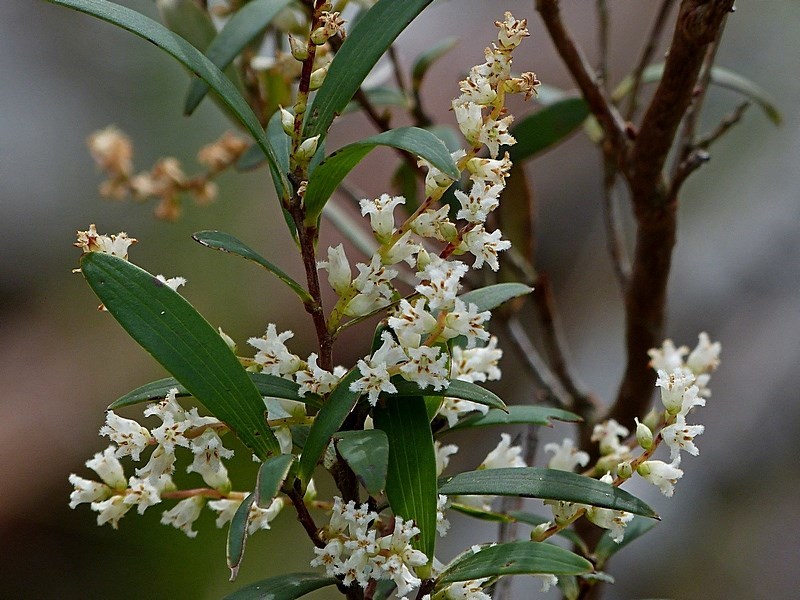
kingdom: Plantae
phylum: Tracheophyta
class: Magnoliopsida
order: Ericales
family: Ericaceae
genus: Leucopogon
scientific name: Leucopogon lanceolatus
